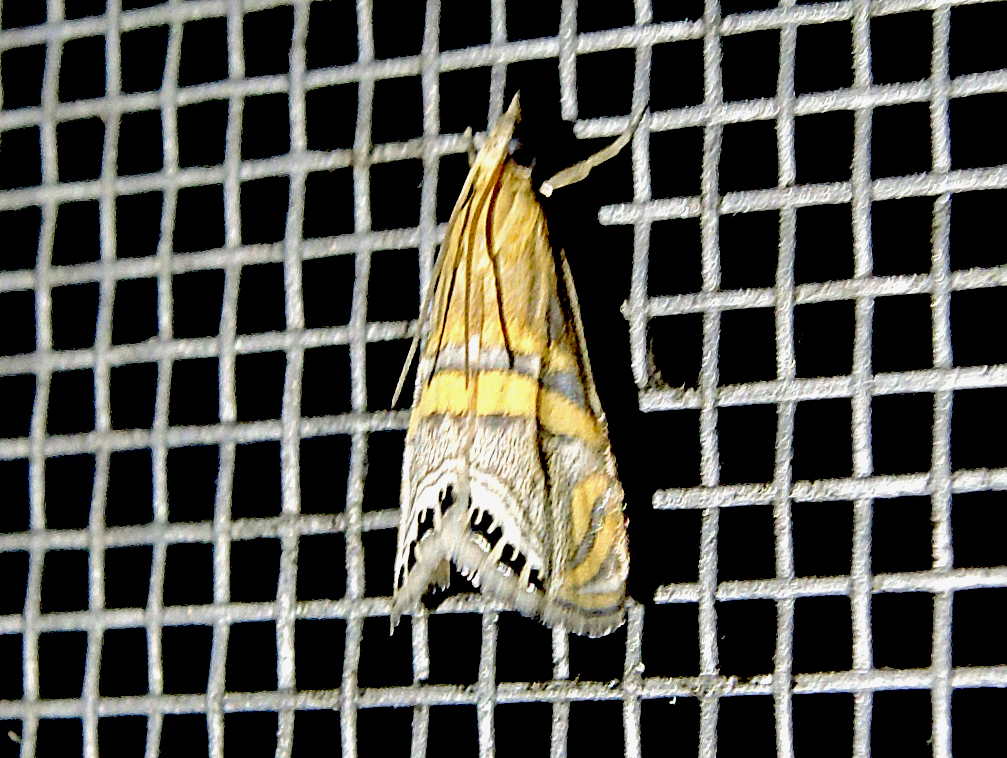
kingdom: Animalia
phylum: Arthropoda
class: Insecta
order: Lepidoptera
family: Crambidae
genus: Euchromius
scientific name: Euchromius bella
